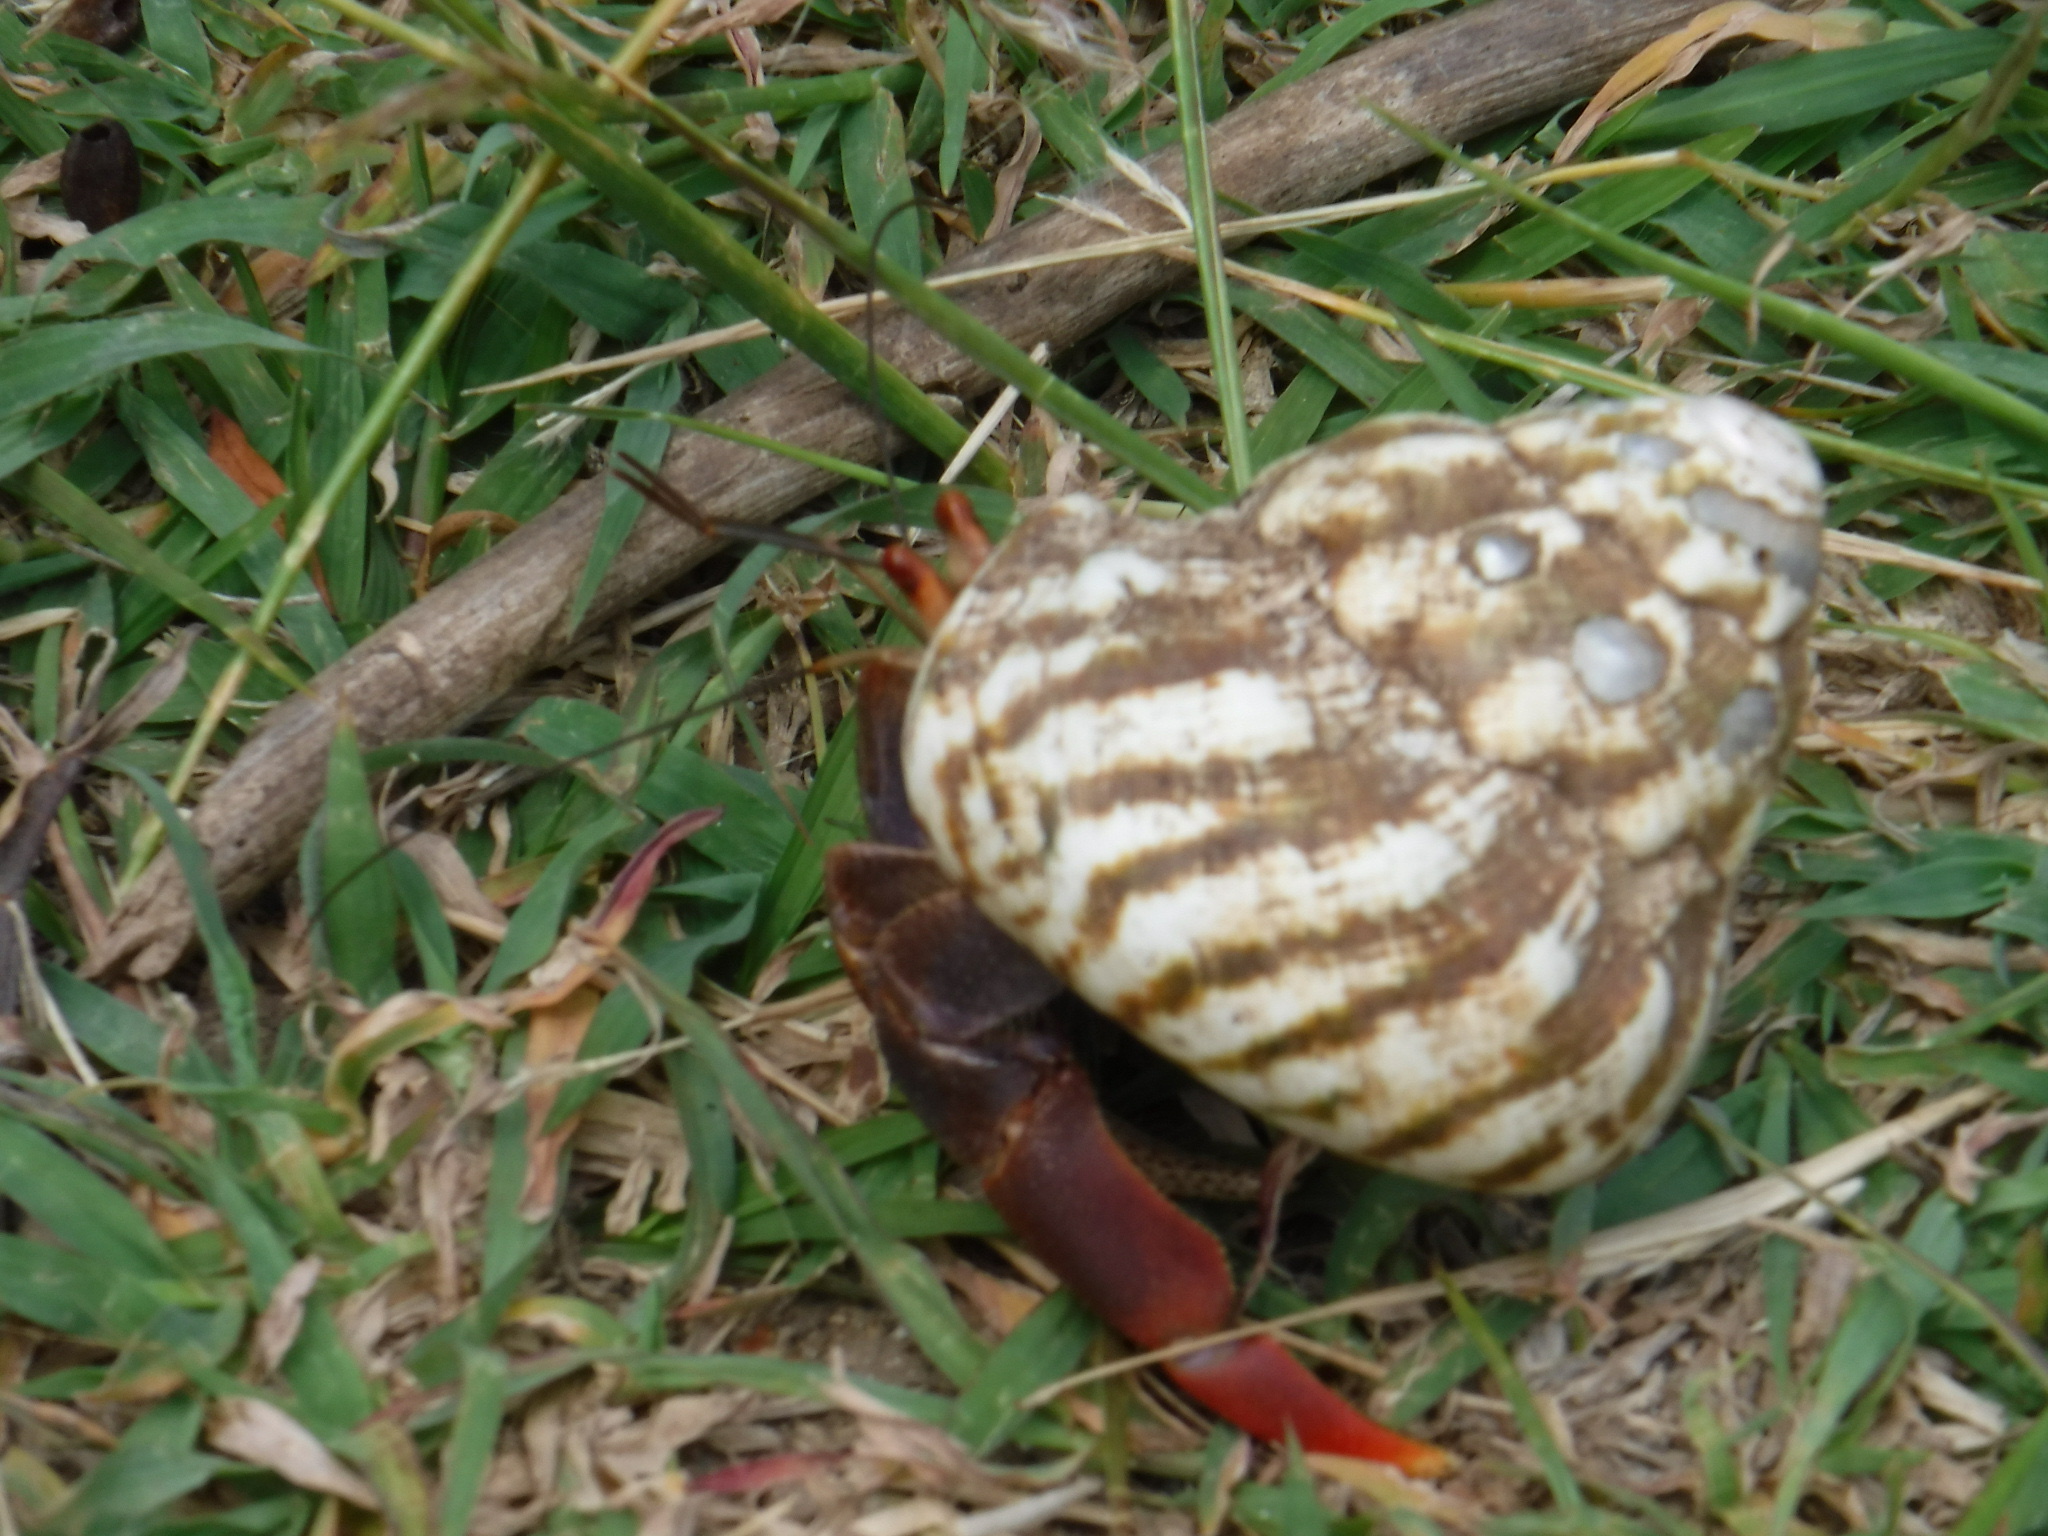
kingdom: Animalia
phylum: Arthropoda
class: Malacostraca
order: Decapoda
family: Coenobitidae
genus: Coenobita
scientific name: Coenobita clypeatus
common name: Caribbean hermit crab
